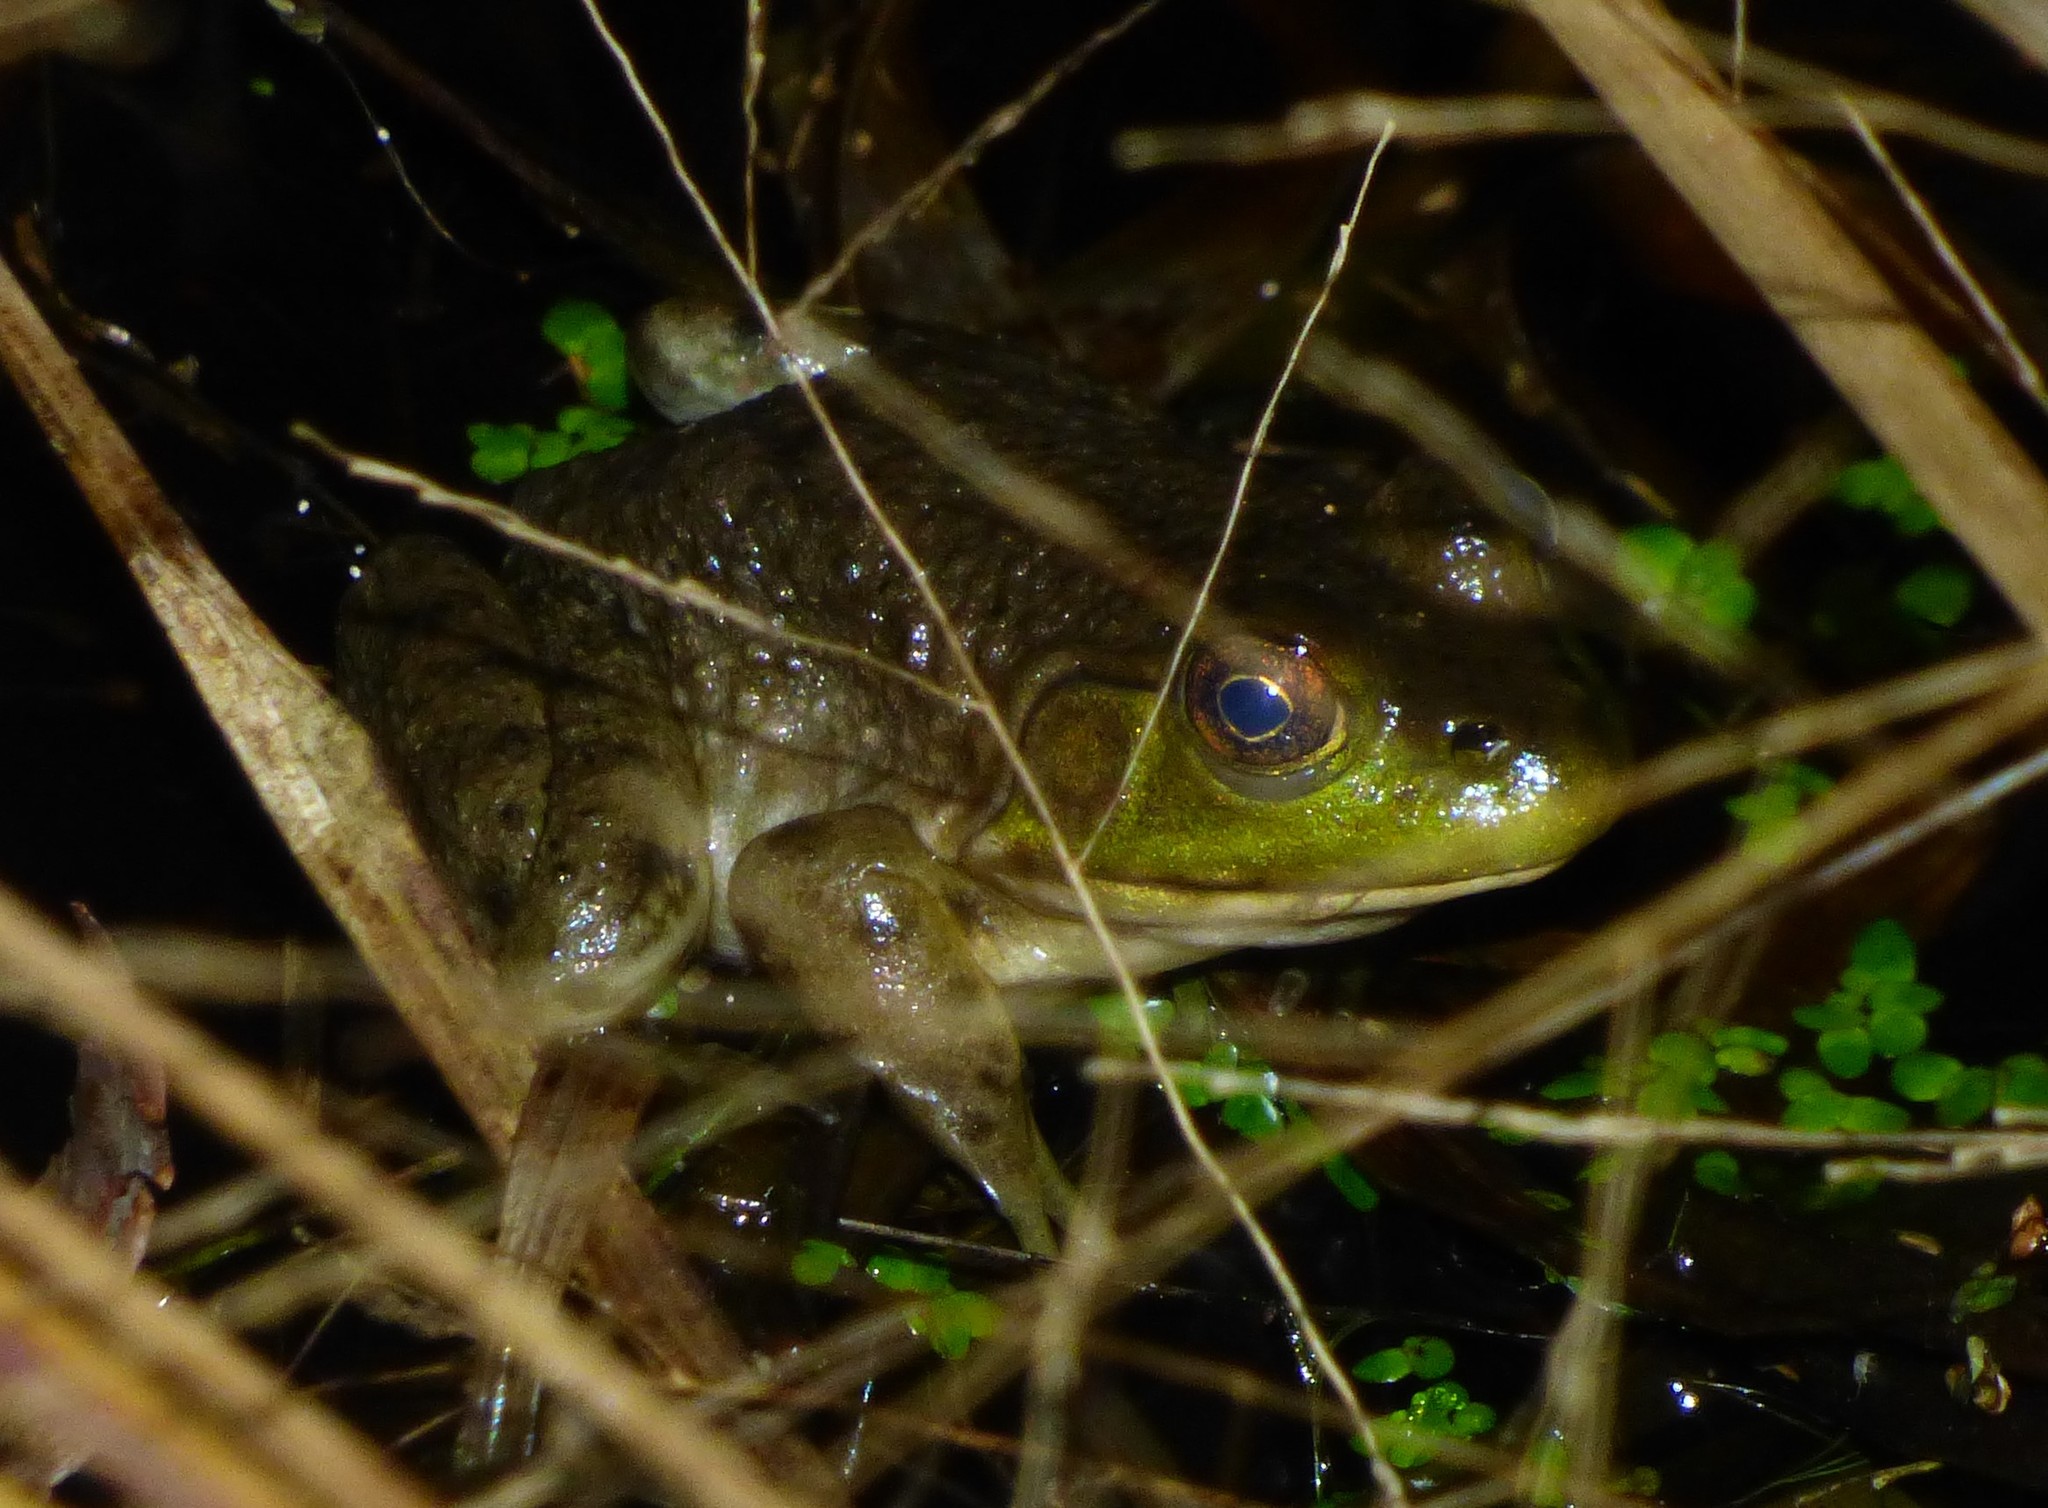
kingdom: Animalia
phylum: Chordata
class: Amphibia
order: Anura
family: Ranidae
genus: Lithobates
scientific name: Lithobates catesbeianus
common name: American bullfrog
